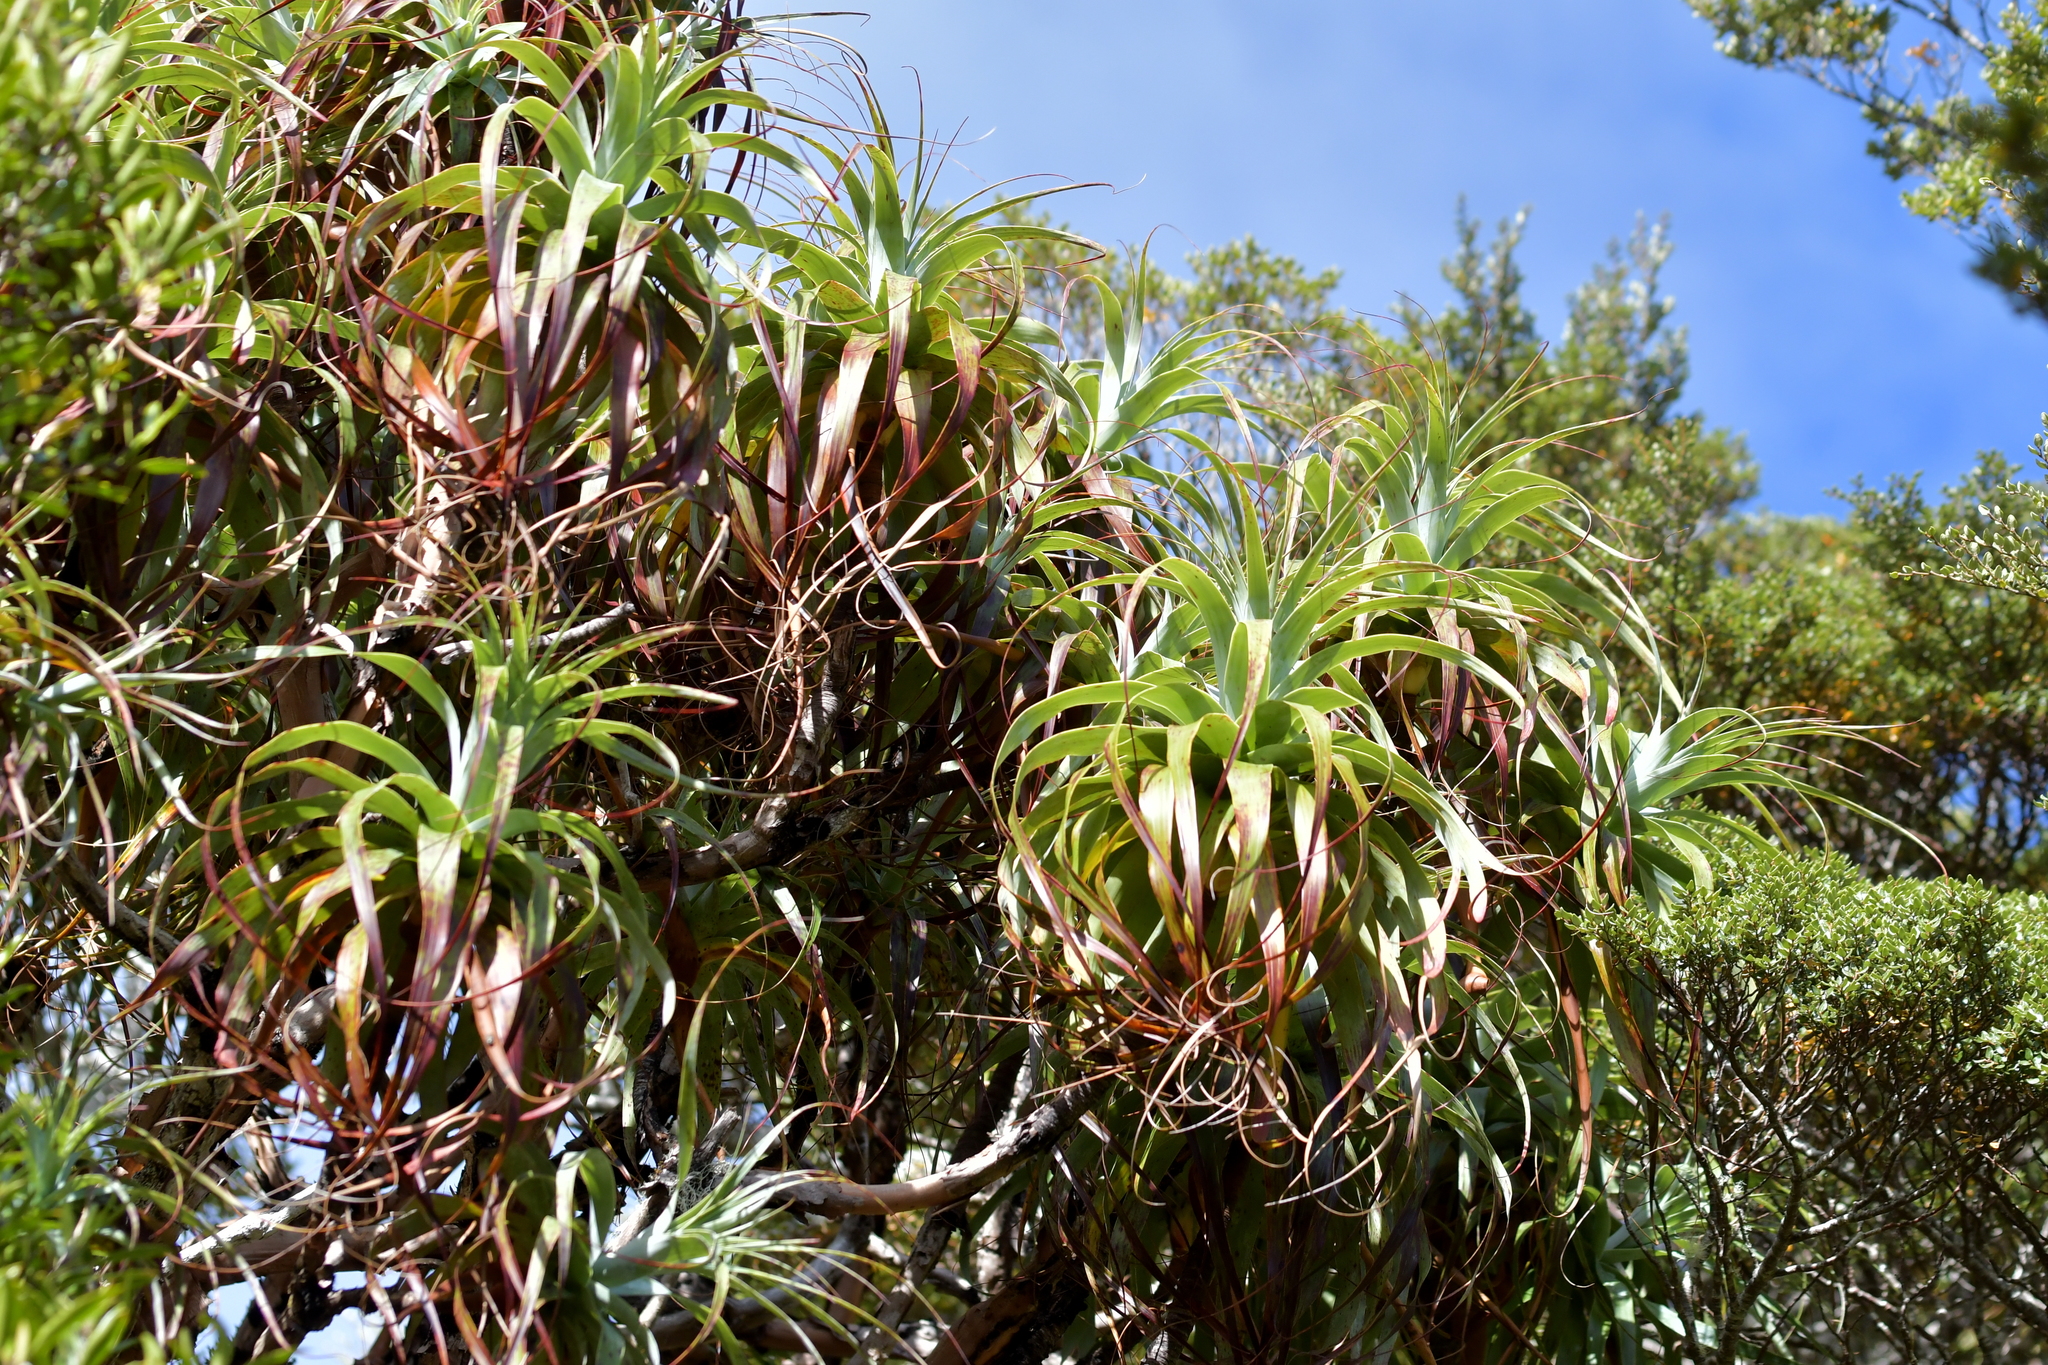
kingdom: Plantae
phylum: Tracheophyta
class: Magnoliopsida
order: Ericales
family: Ericaceae
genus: Dracophyllum
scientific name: Dracophyllum traversii
